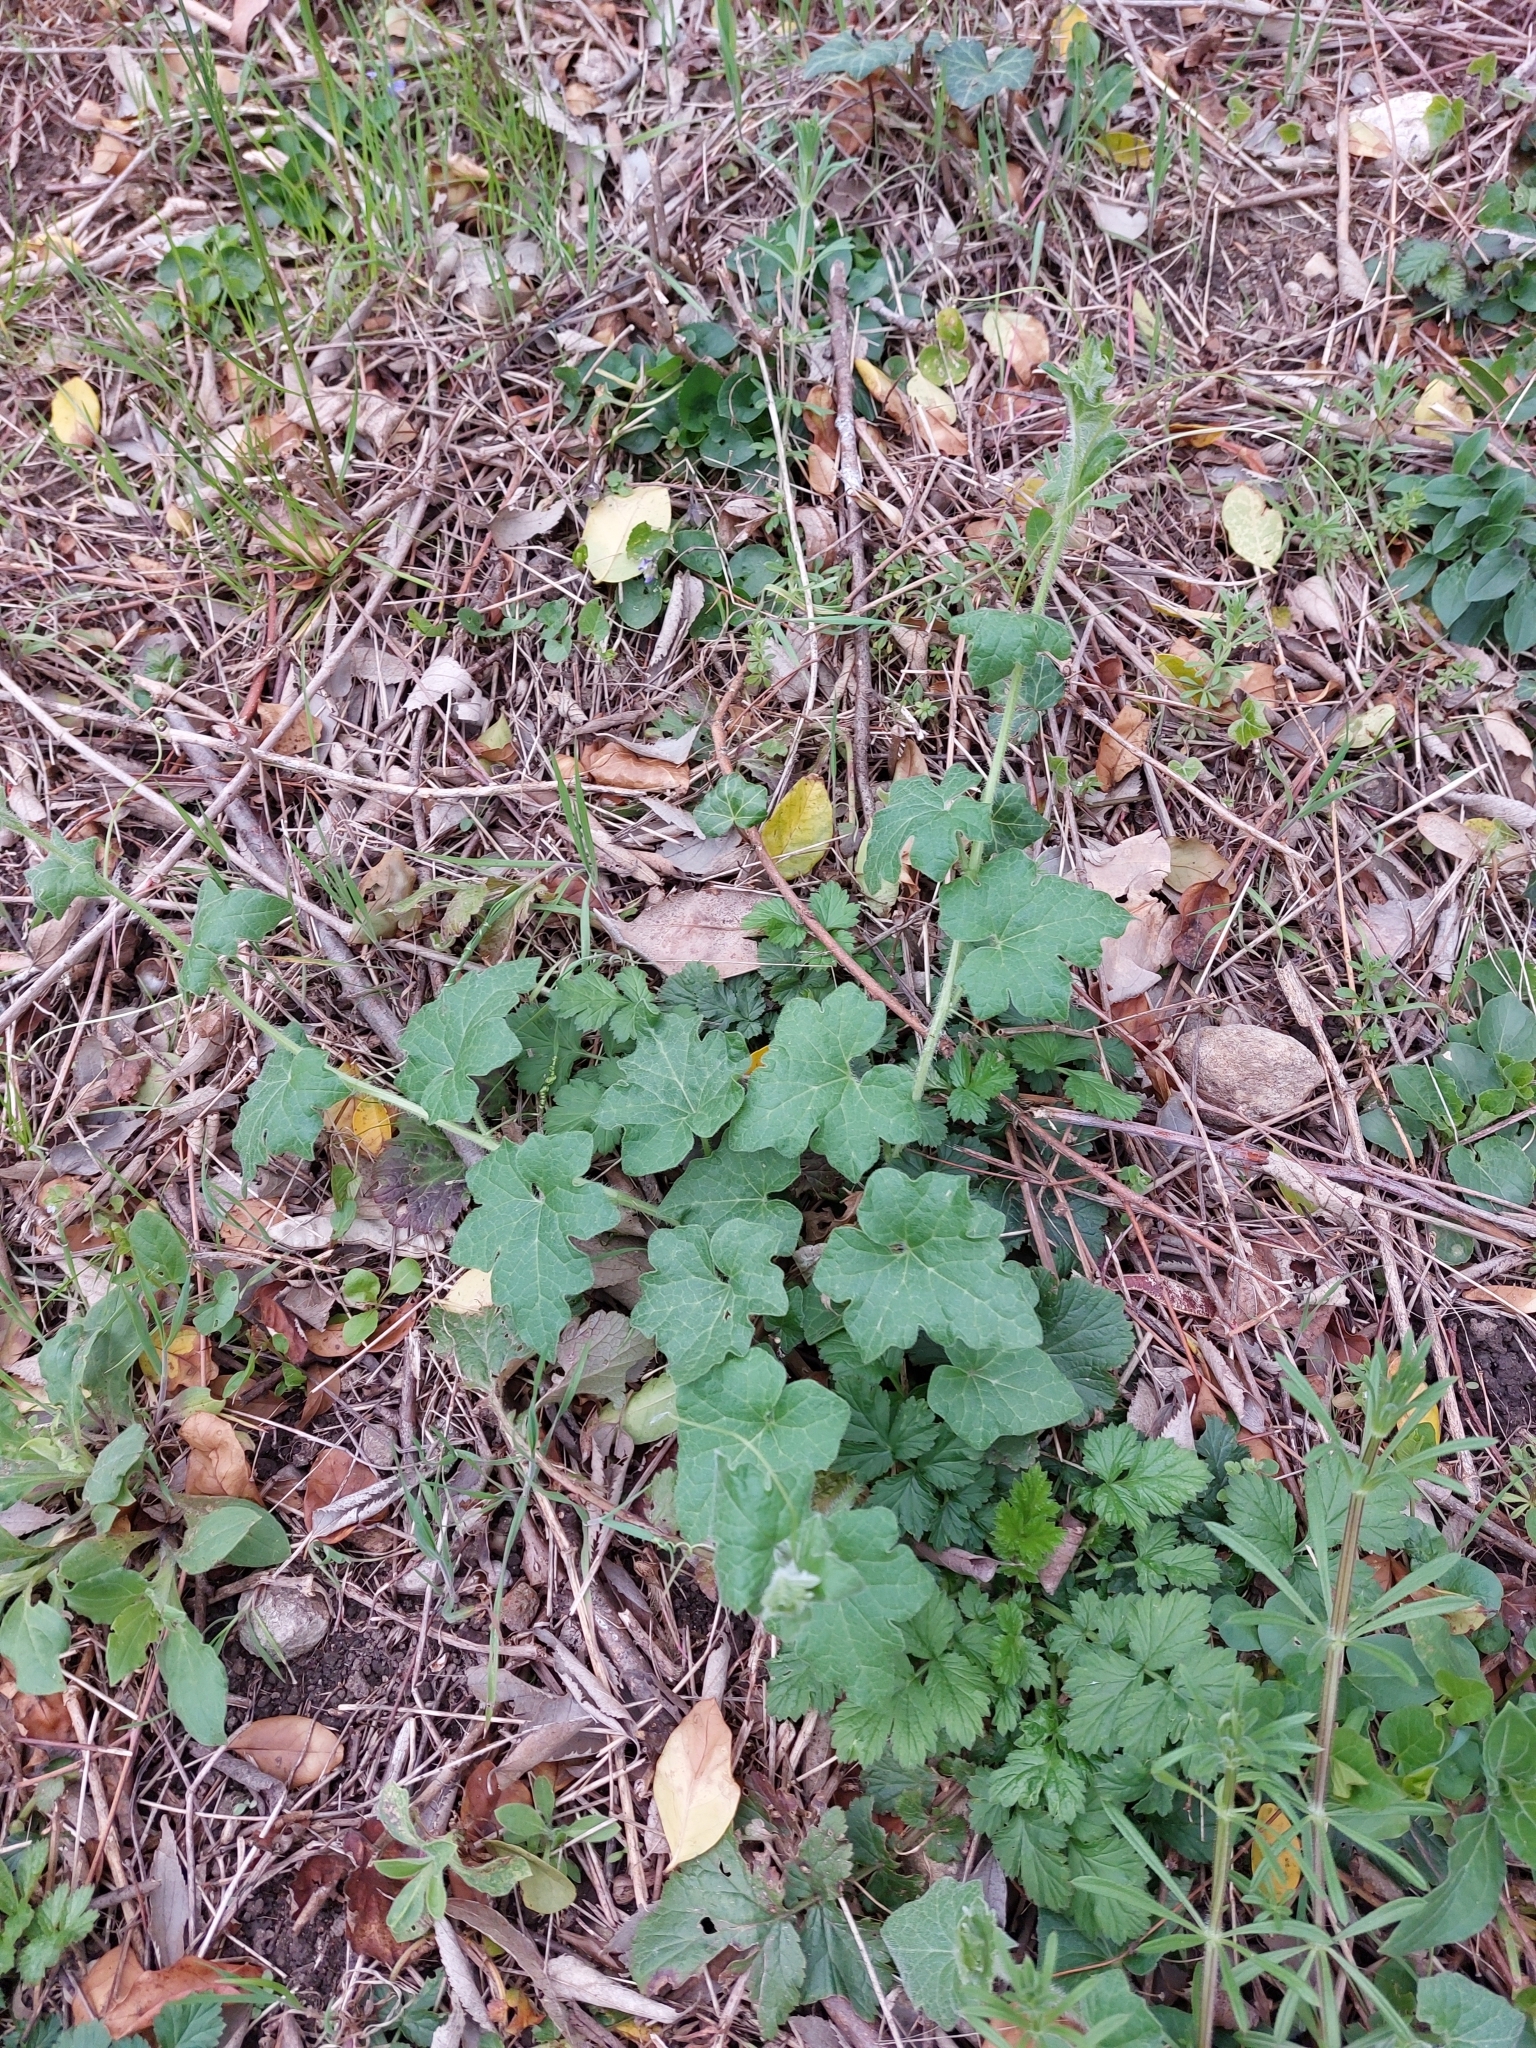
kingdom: Plantae
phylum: Tracheophyta
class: Magnoliopsida
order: Cucurbitales
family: Cucurbitaceae
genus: Bryonia
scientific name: Bryonia cretica
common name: Cretan bryony
